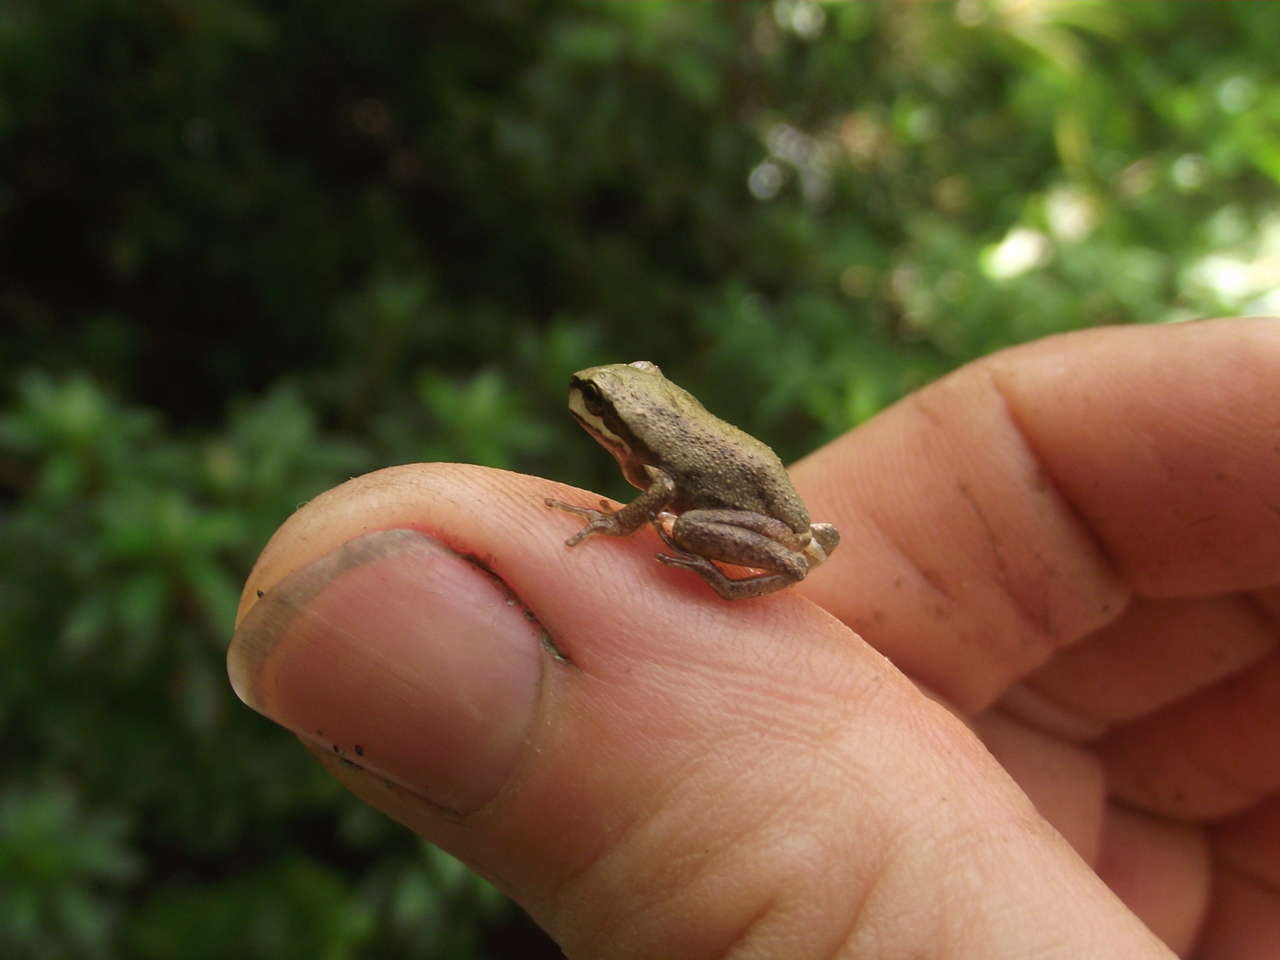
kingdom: Animalia
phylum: Chordata
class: Amphibia
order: Anura
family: Pelodryadidae
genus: Litoria
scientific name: Litoria ewingii
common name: Southern brown tree frog
